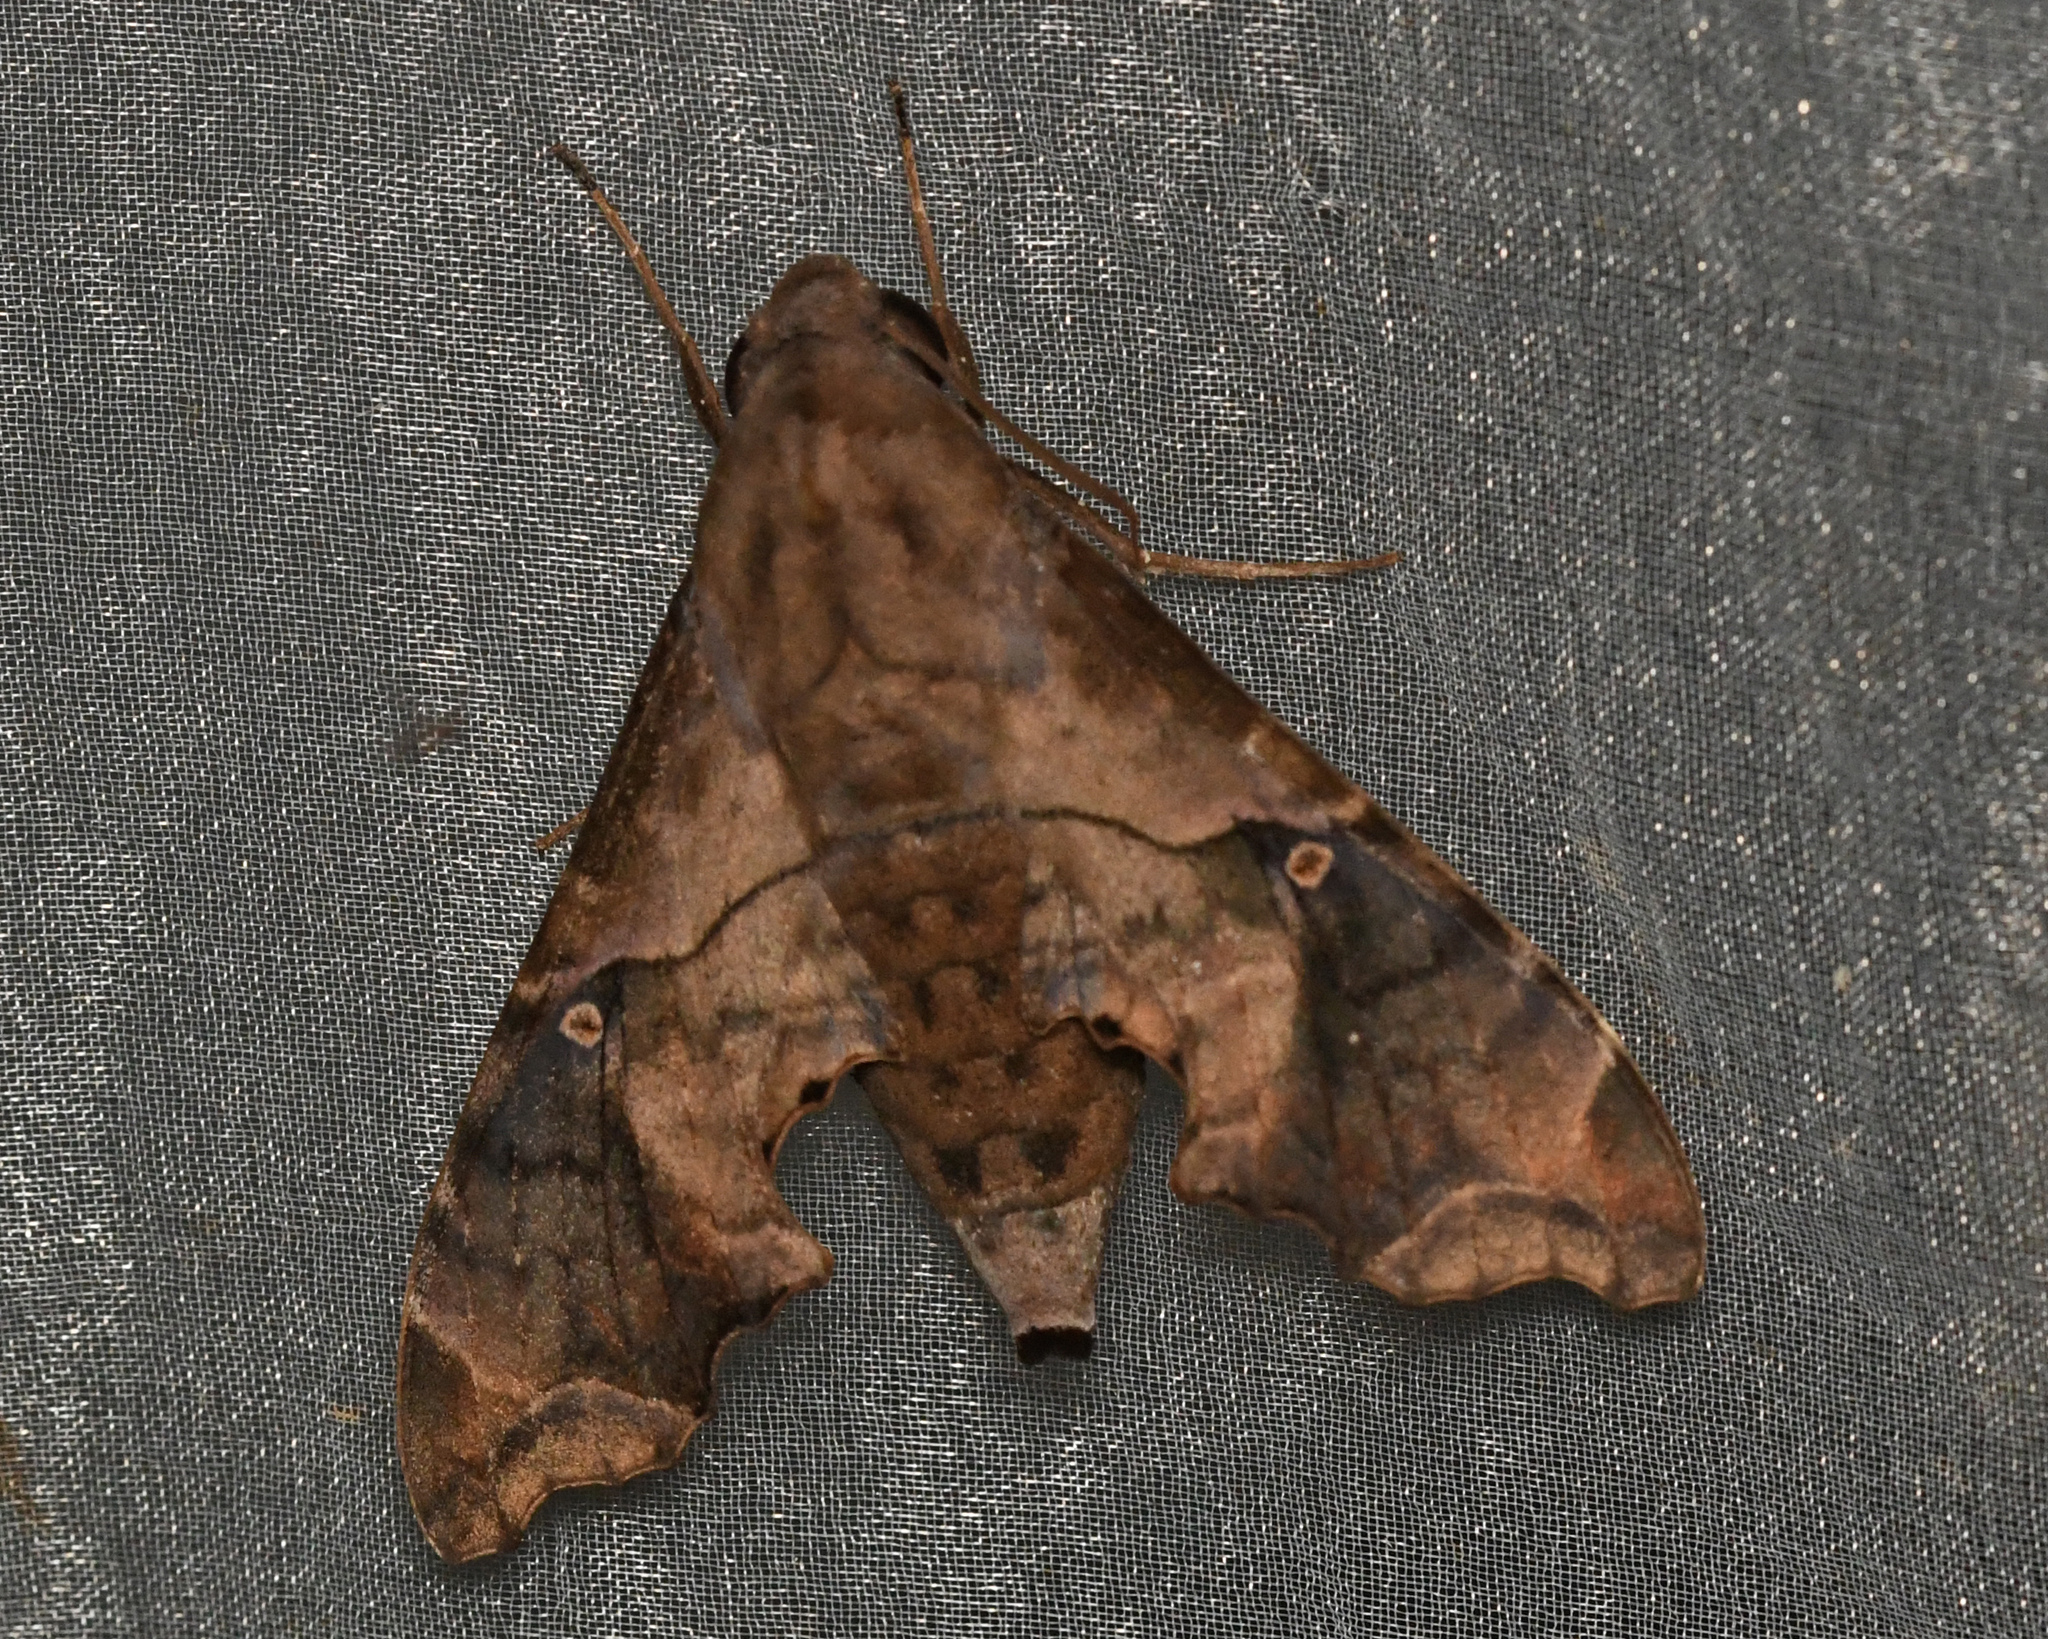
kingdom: Animalia
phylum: Arthropoda
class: Insecta
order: Lepidoptera
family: Sphingidae
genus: Enyo
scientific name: Enyo lugubris
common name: Mournful sphinx
